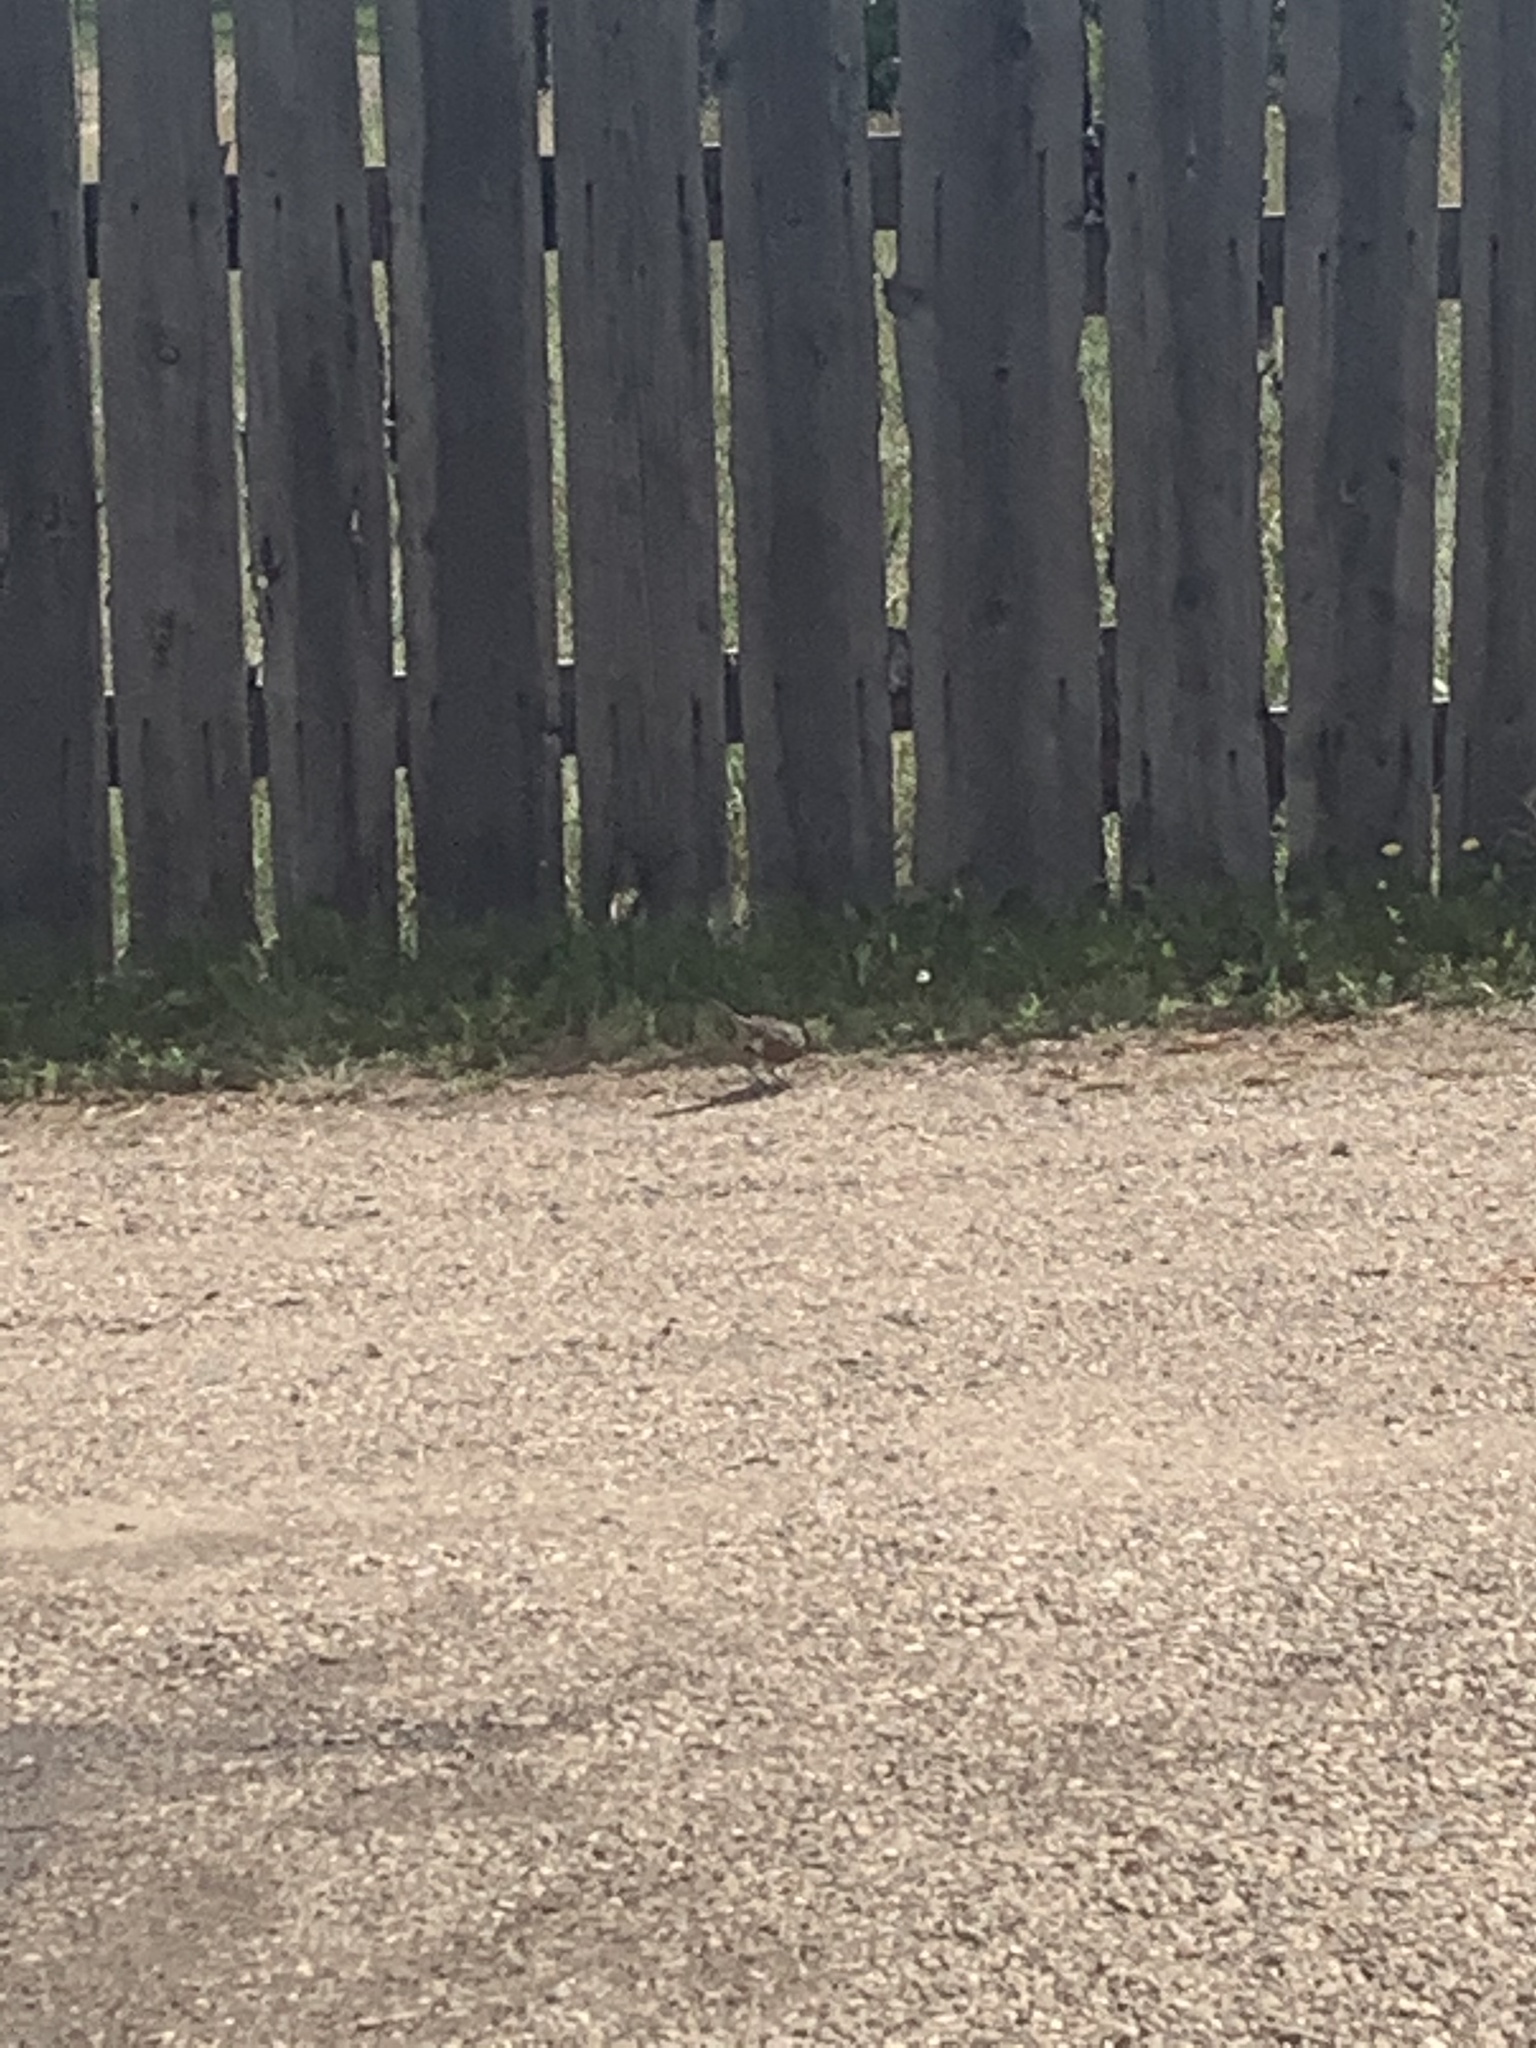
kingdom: Animalia
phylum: Chordata
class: Aves
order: Passeriformes
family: Turdidae
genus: Turdus
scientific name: Turdus migratorius
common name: American robin
